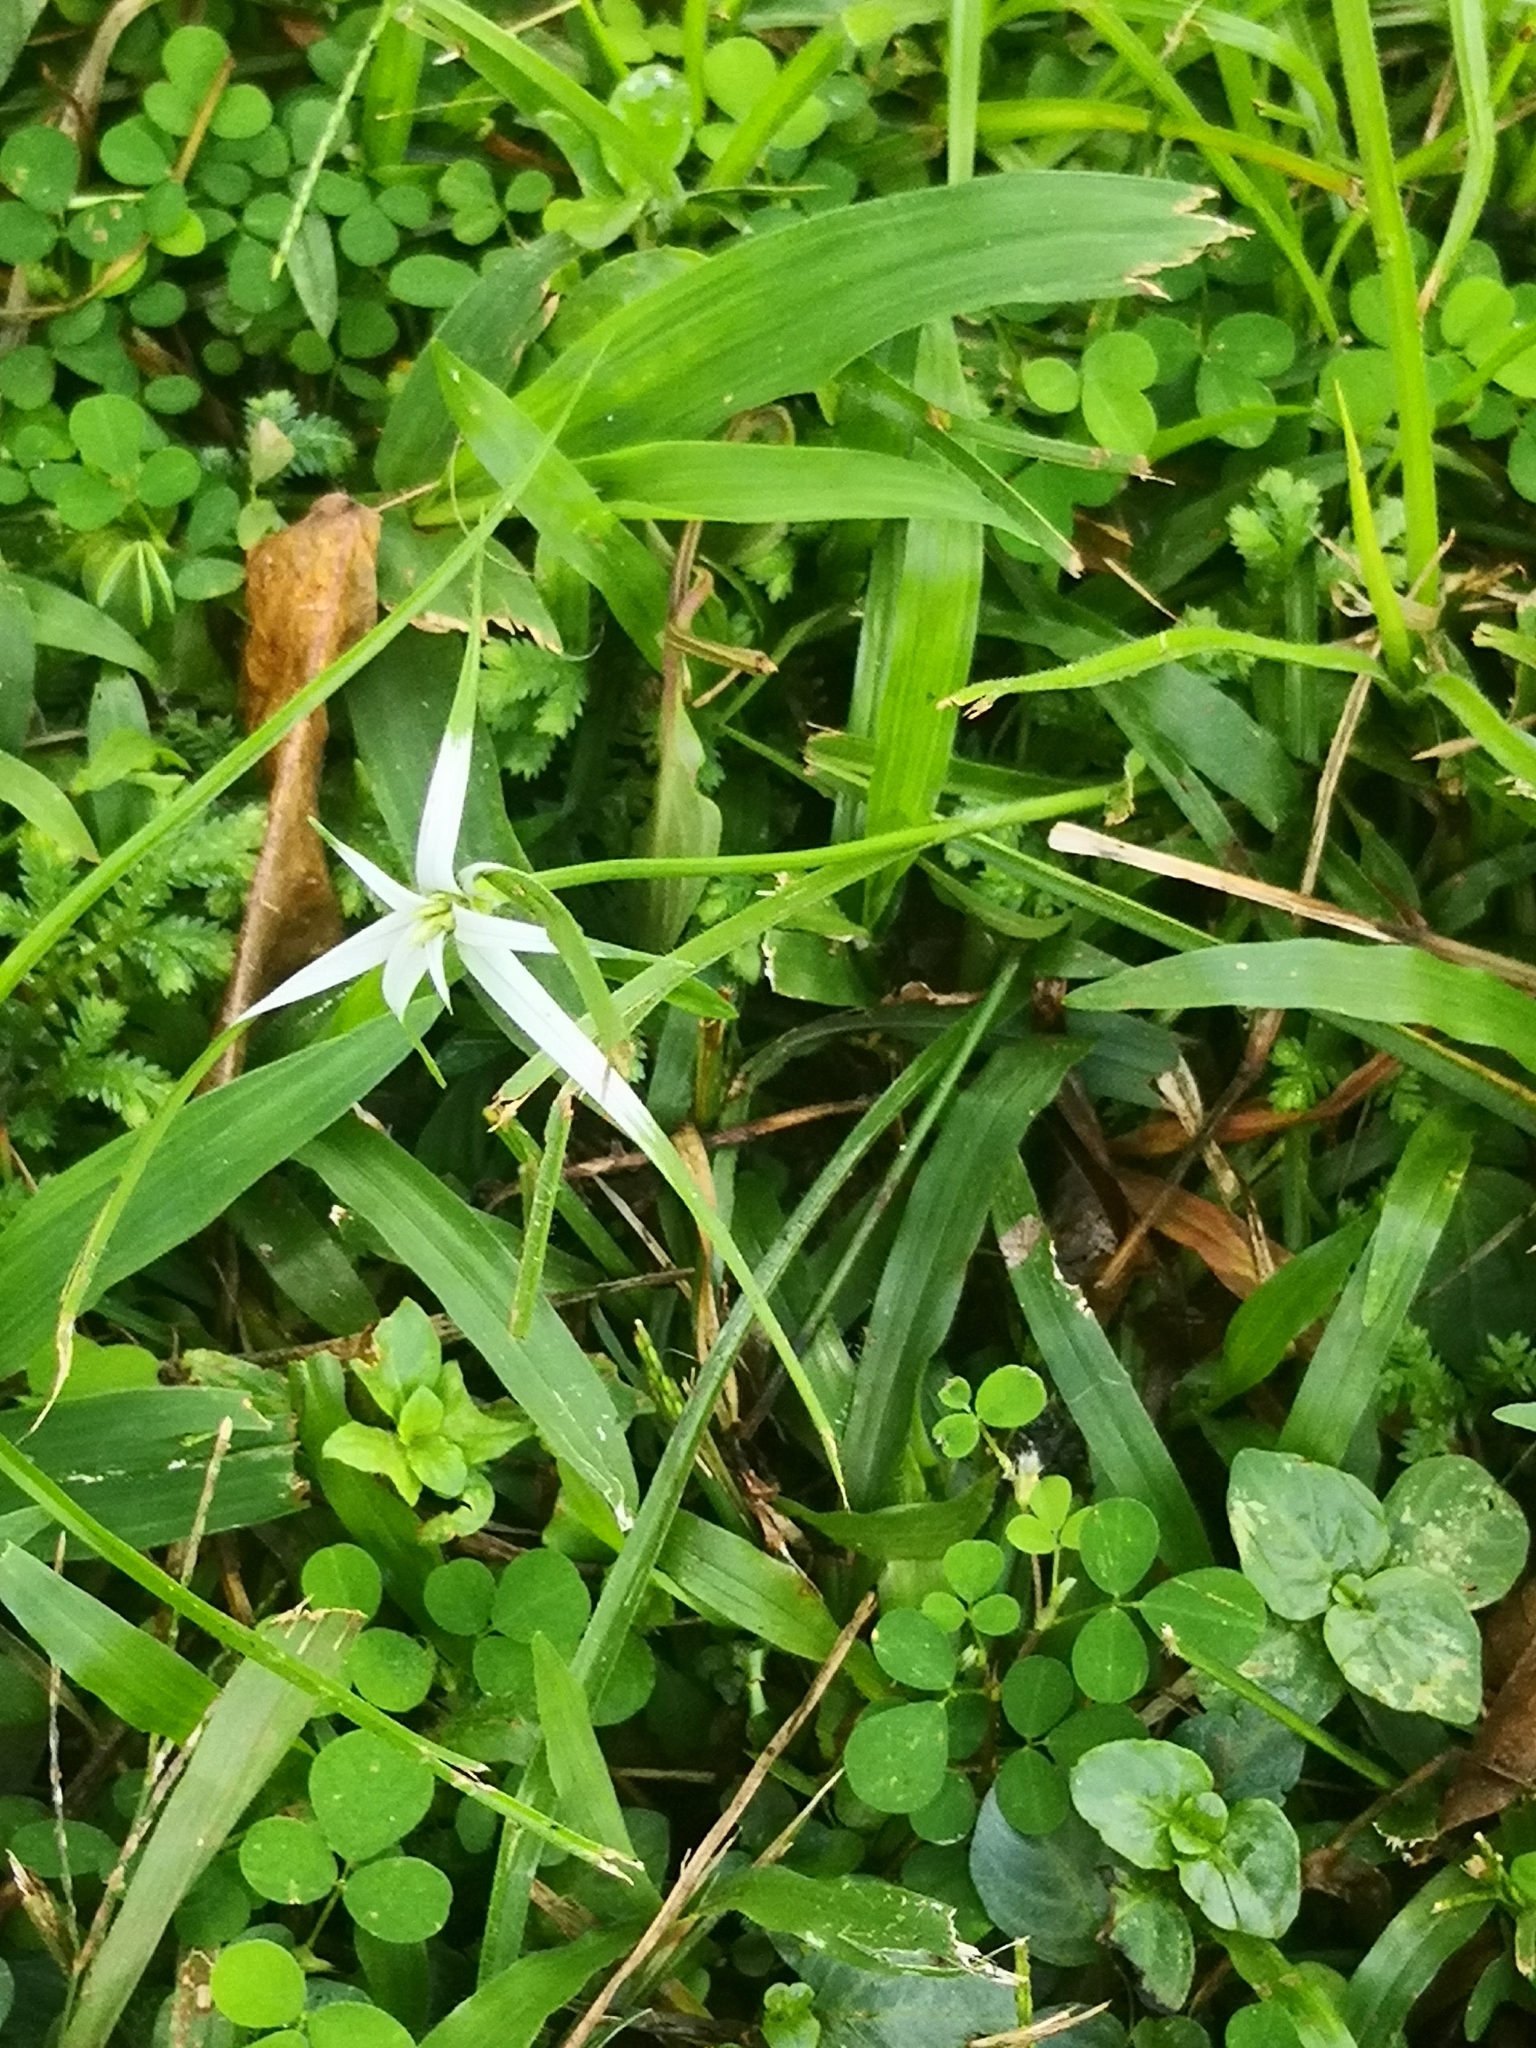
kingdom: Plantae
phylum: Tracheophyta
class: Liliopsida
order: Poales
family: Cyperaceae
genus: Rhynchospora
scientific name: Rhynchospora nervosa
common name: Star sedge
